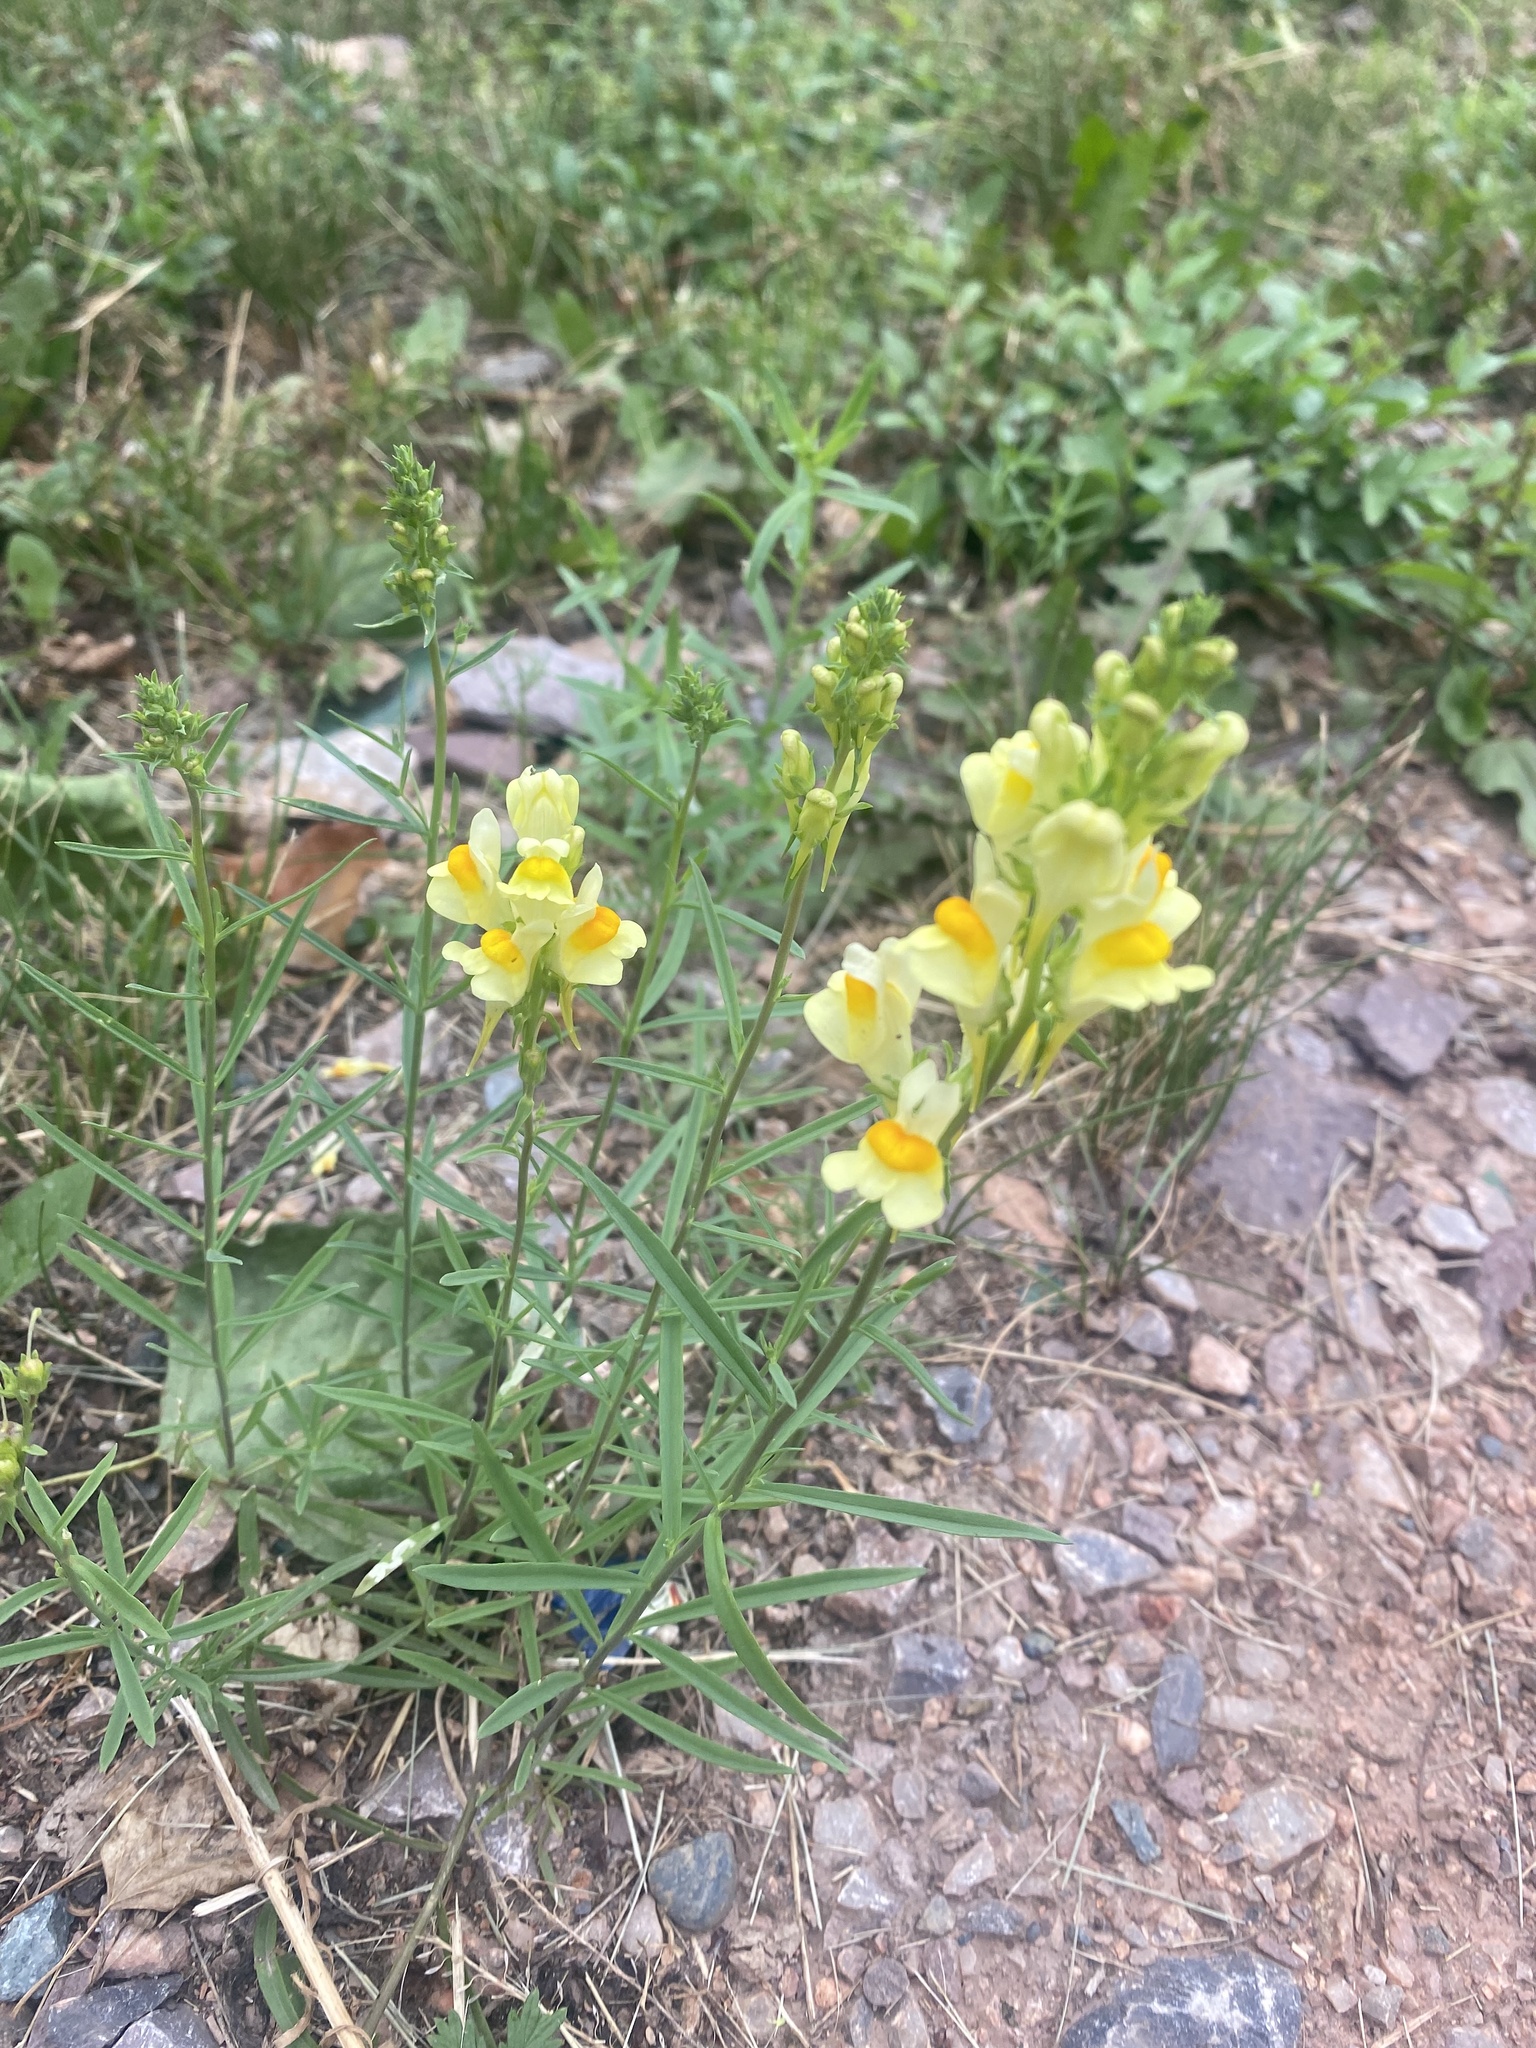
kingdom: Plantae
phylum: Tracheophyta
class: Magnoliopsida
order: Lamiales
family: Plantaginaceae
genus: Linaria
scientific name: Linaria vulgaris
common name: Butter and eggs
